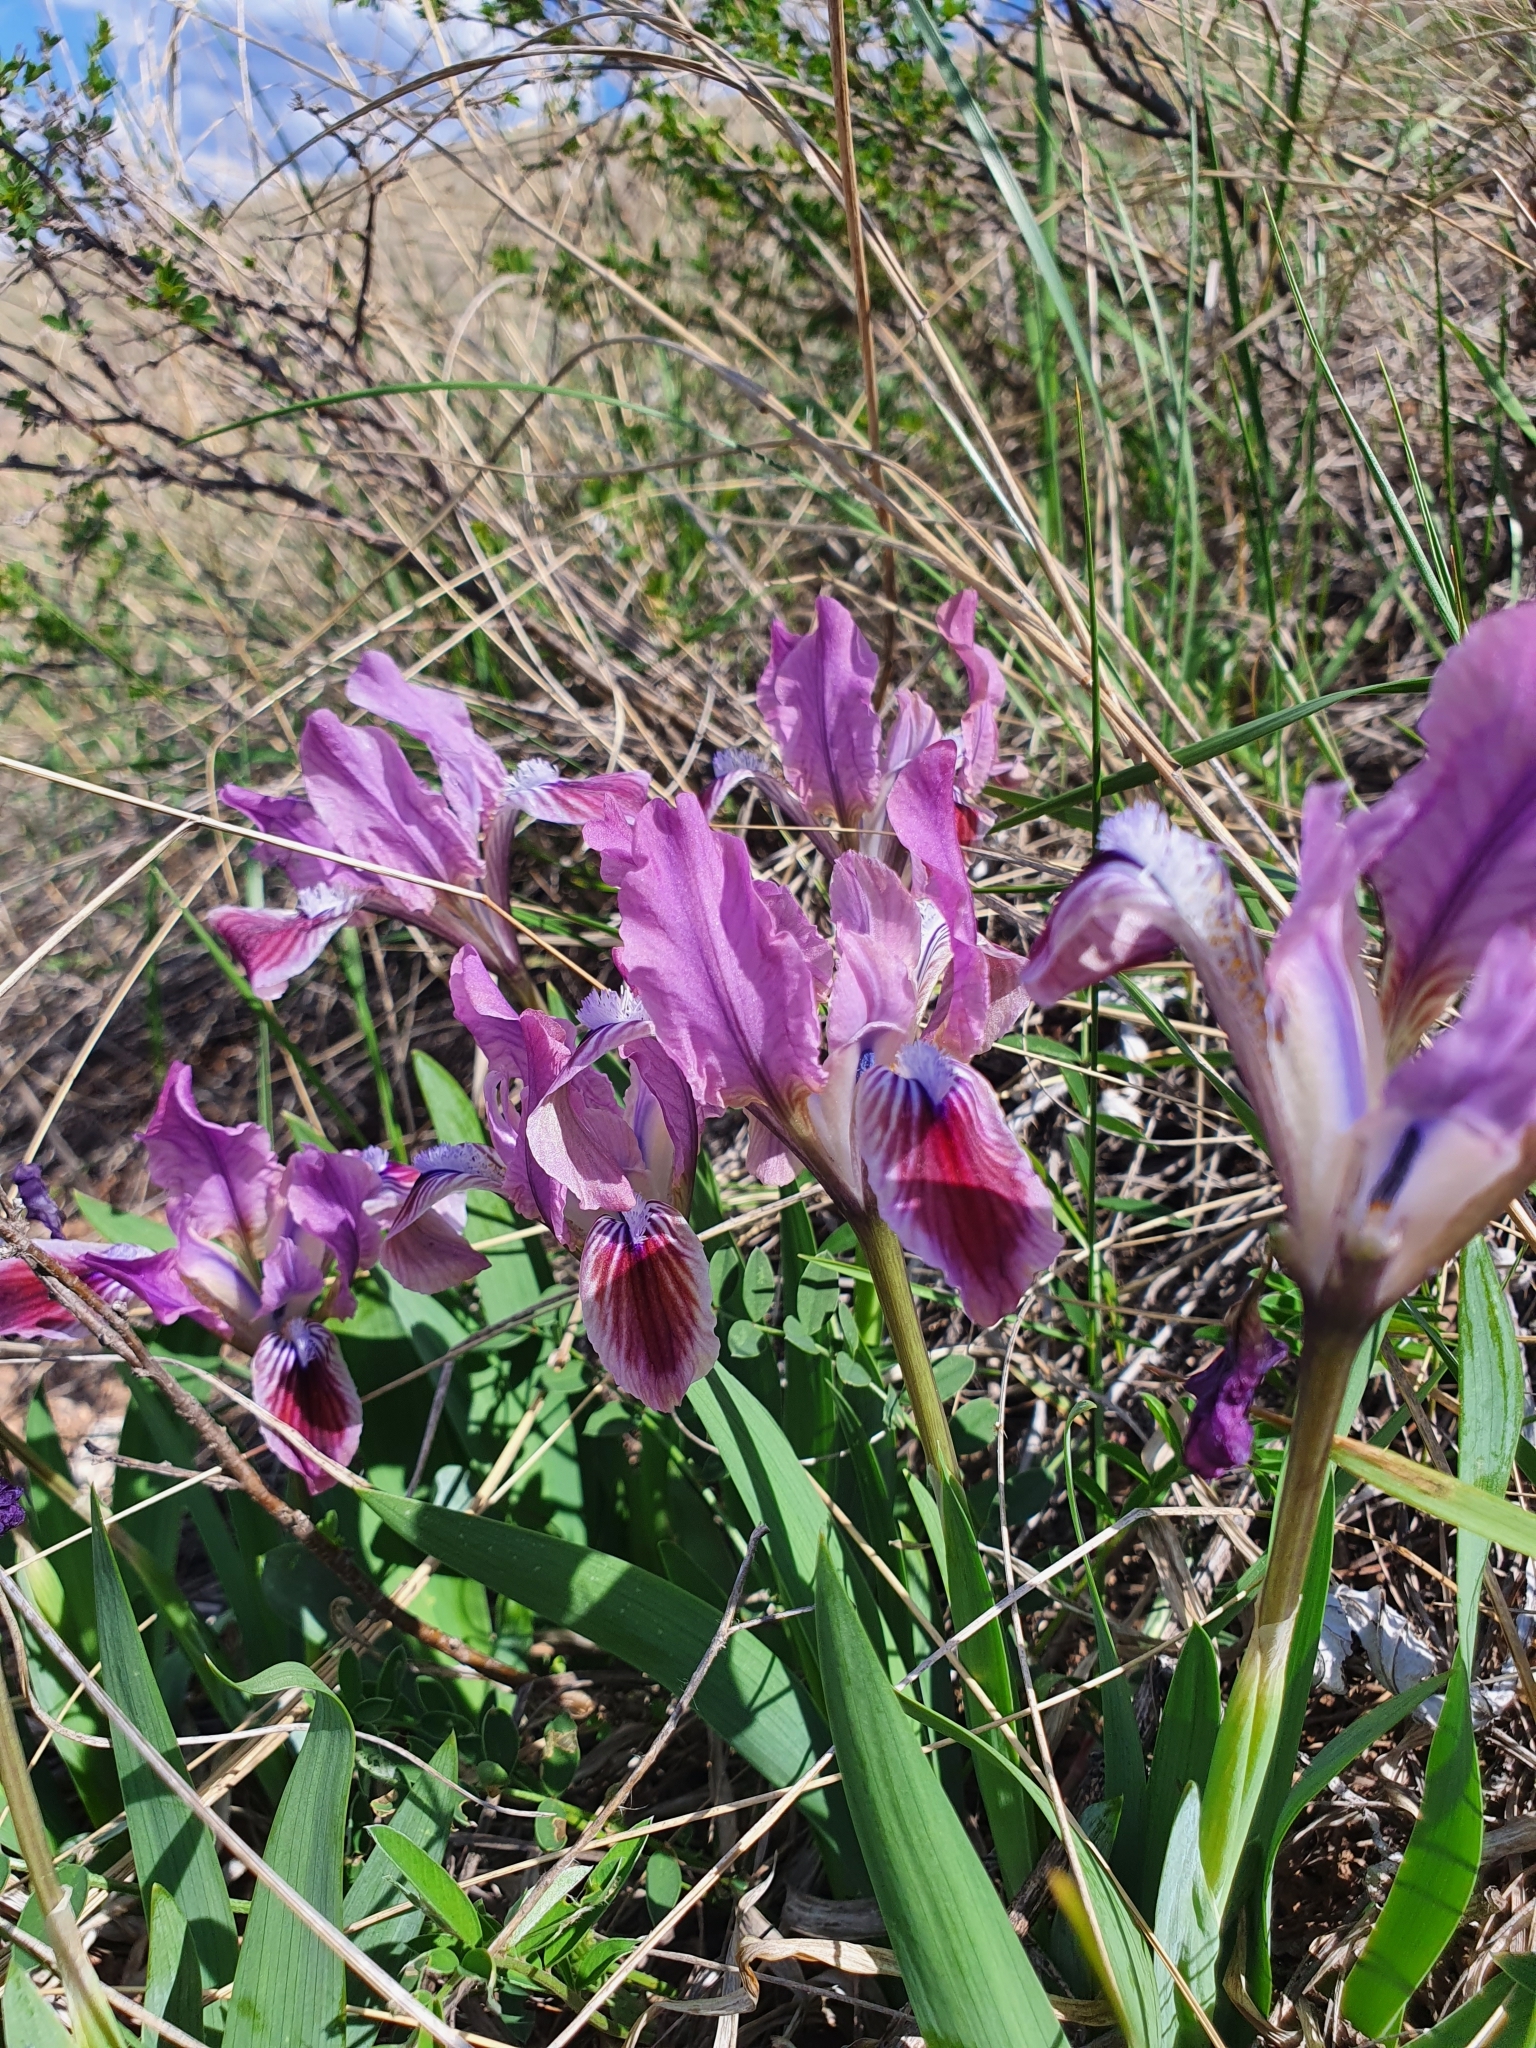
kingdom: Plantae
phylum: Tracheophyta
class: Liliopsida
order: Asparagales
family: Iridaceae
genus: Iris
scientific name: Iris pumila
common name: Dwarf iris
